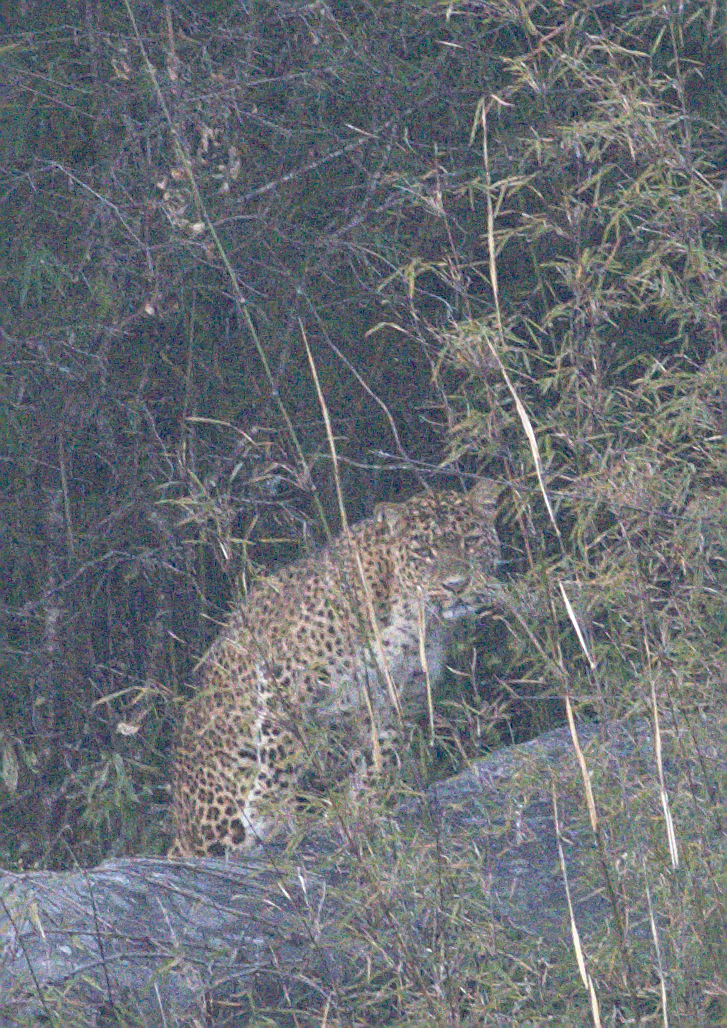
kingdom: Animalia
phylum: Chordata
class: Mammalia
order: Carnivora
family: Felidae
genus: Panthera
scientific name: Panthera pardus
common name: Leopard
